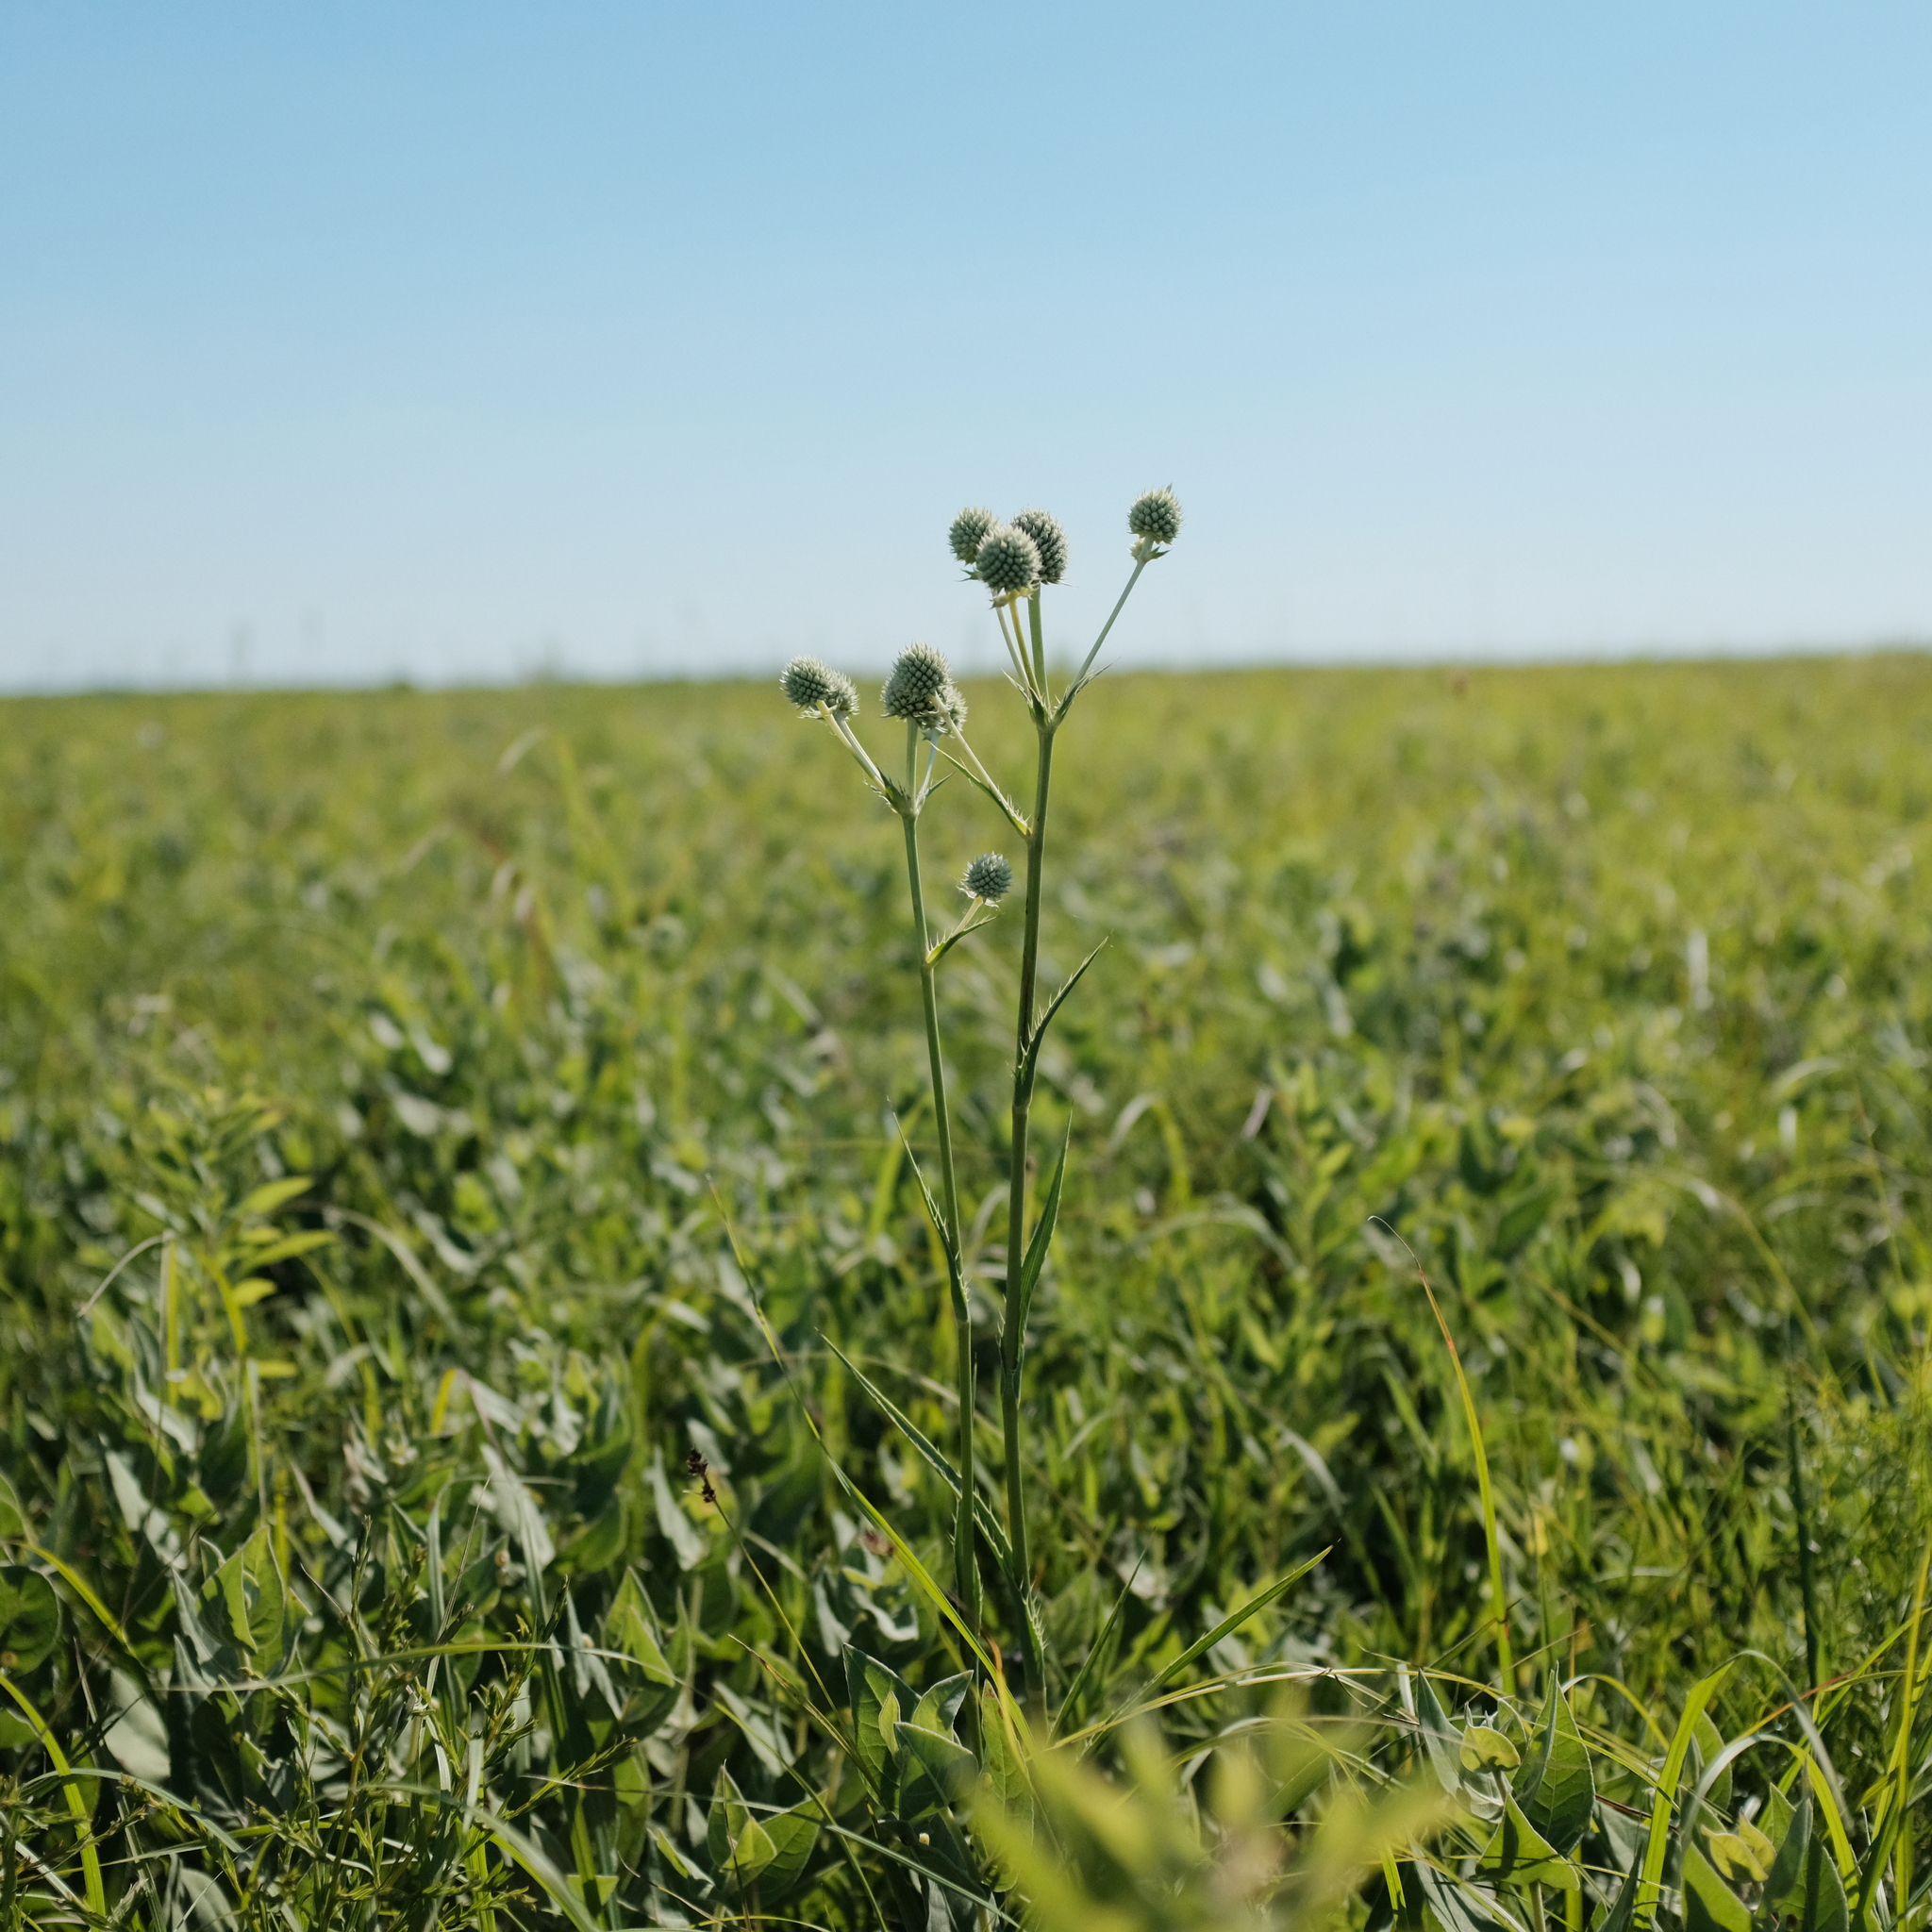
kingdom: Plantae
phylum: Tracheophyta
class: Magnoliopsida
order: Apiales
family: Apiaceae
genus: Eryngium
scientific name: Eryngium yuccifolium
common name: Button eryngo
